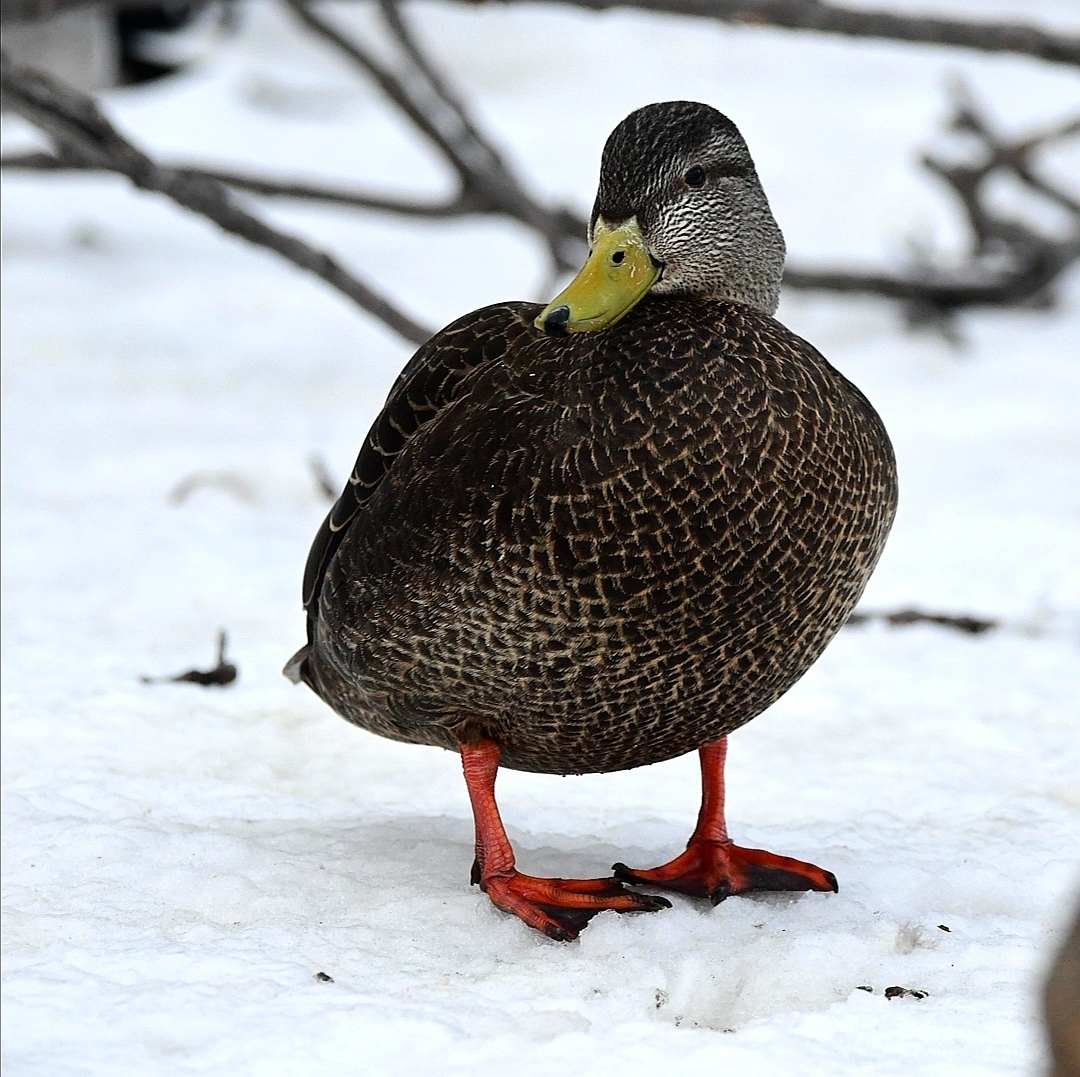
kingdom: Animalia
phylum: Chordata
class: Aves
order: Anseriformes
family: Anatidae
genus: Anas
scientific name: Anas rubripes
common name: American black duck
